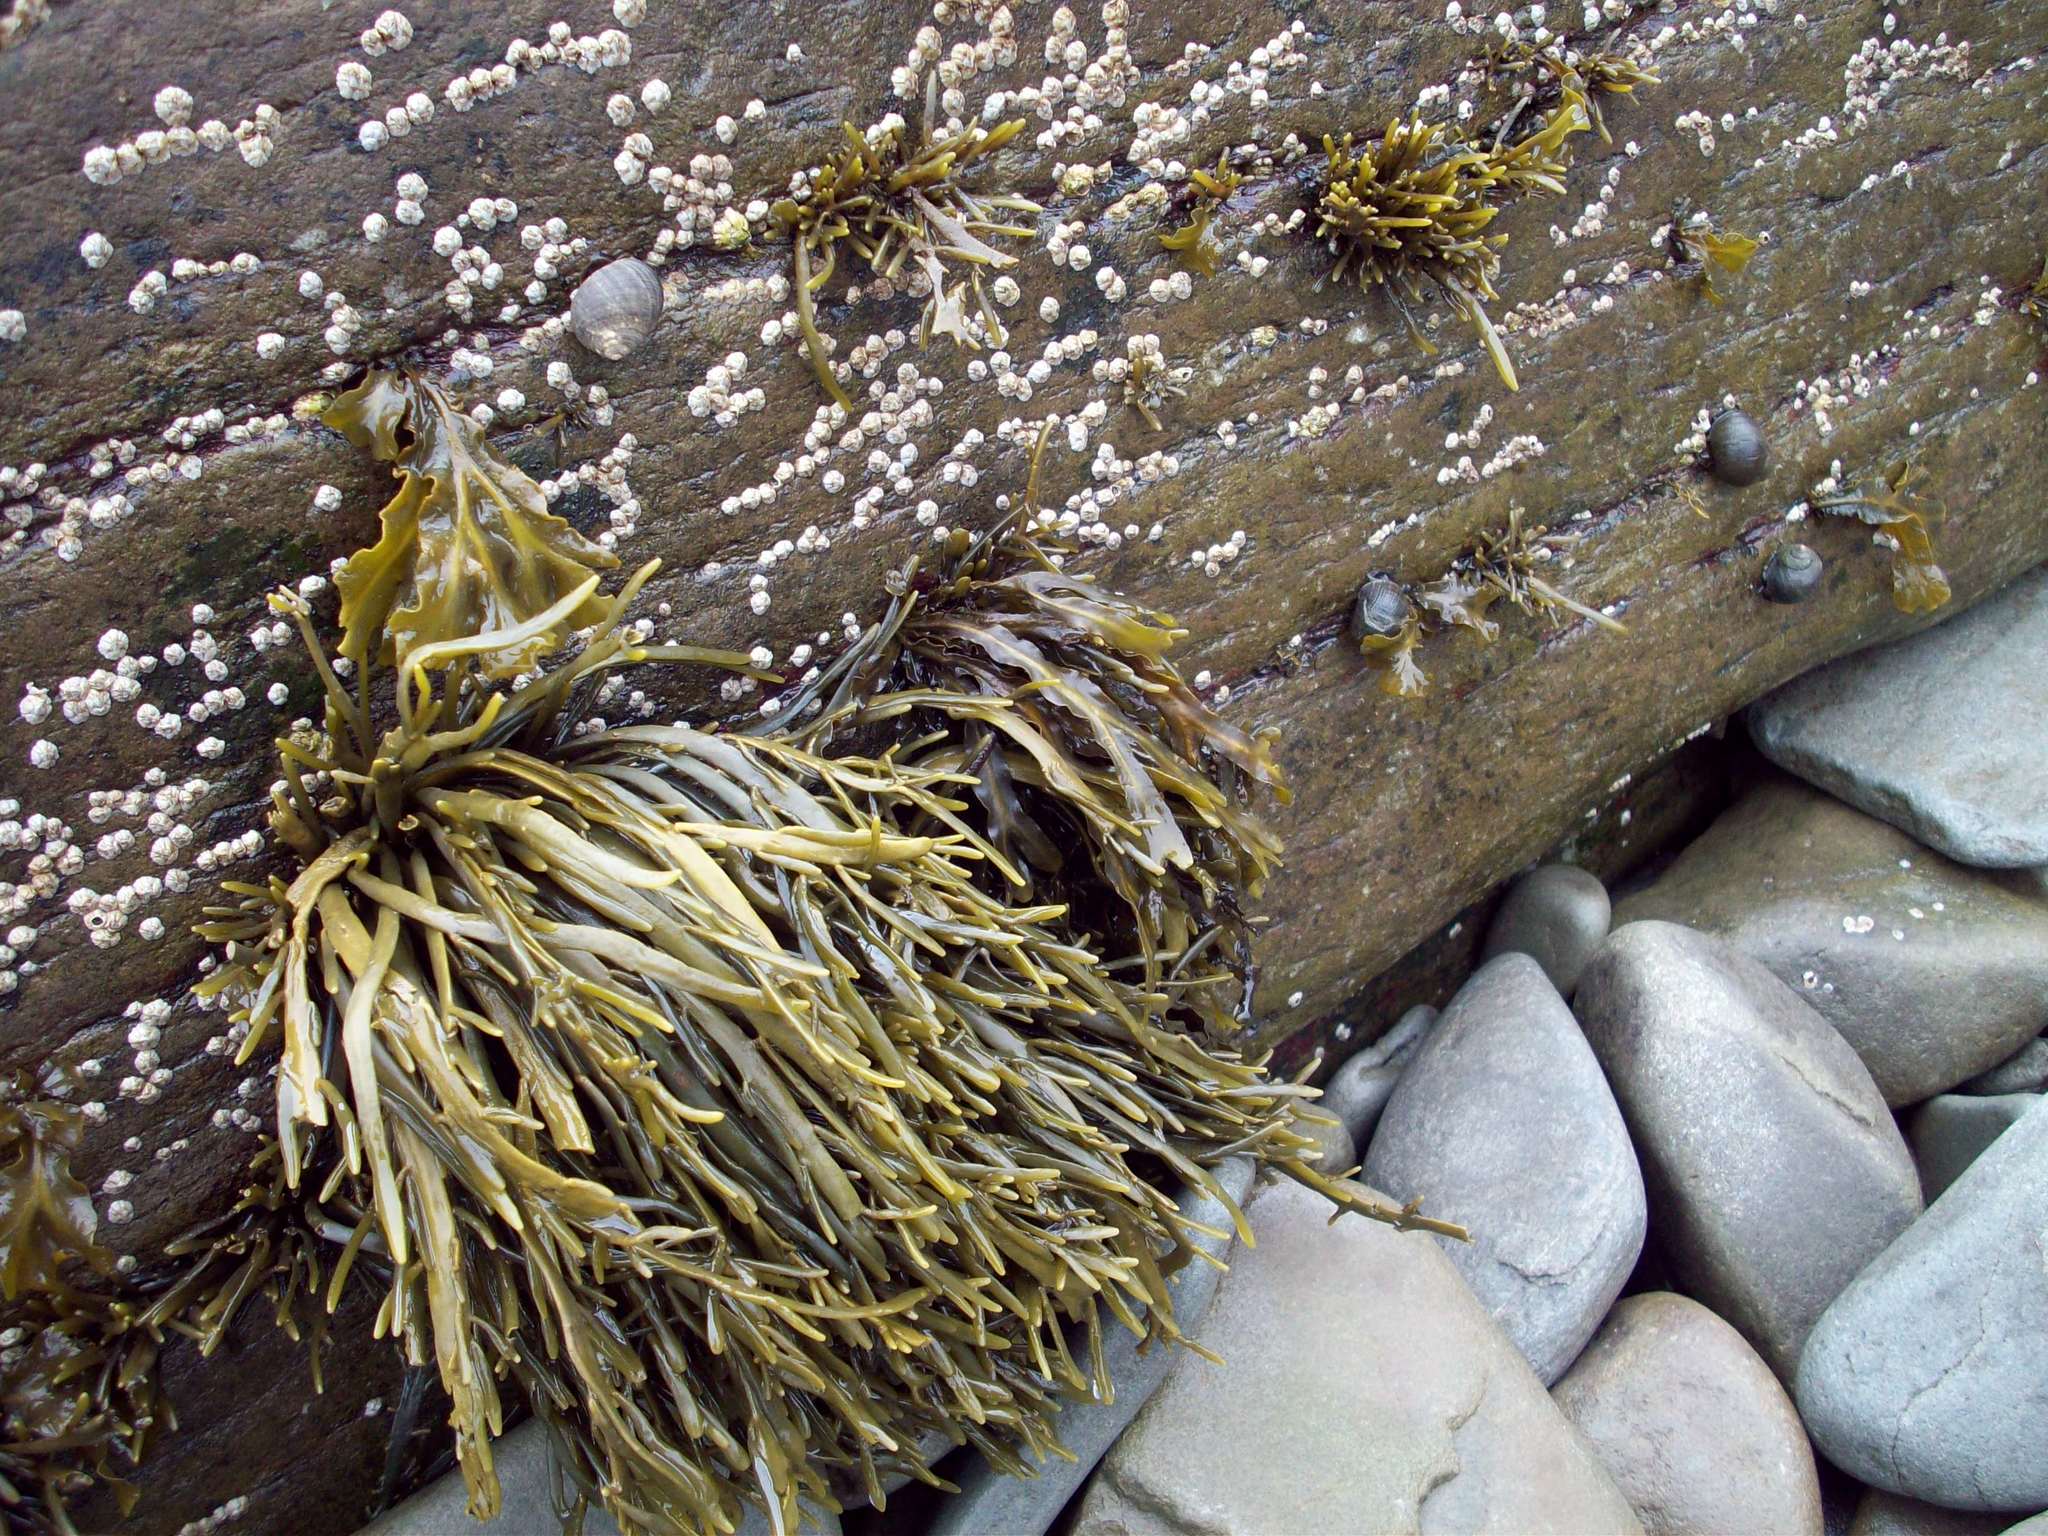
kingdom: Chromista
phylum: Ochrophyta
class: Phaeophyceae
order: Fucales
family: Fucaceae
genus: Ascophyllum
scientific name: Ascophyllum nodosum
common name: Knotted wrack
